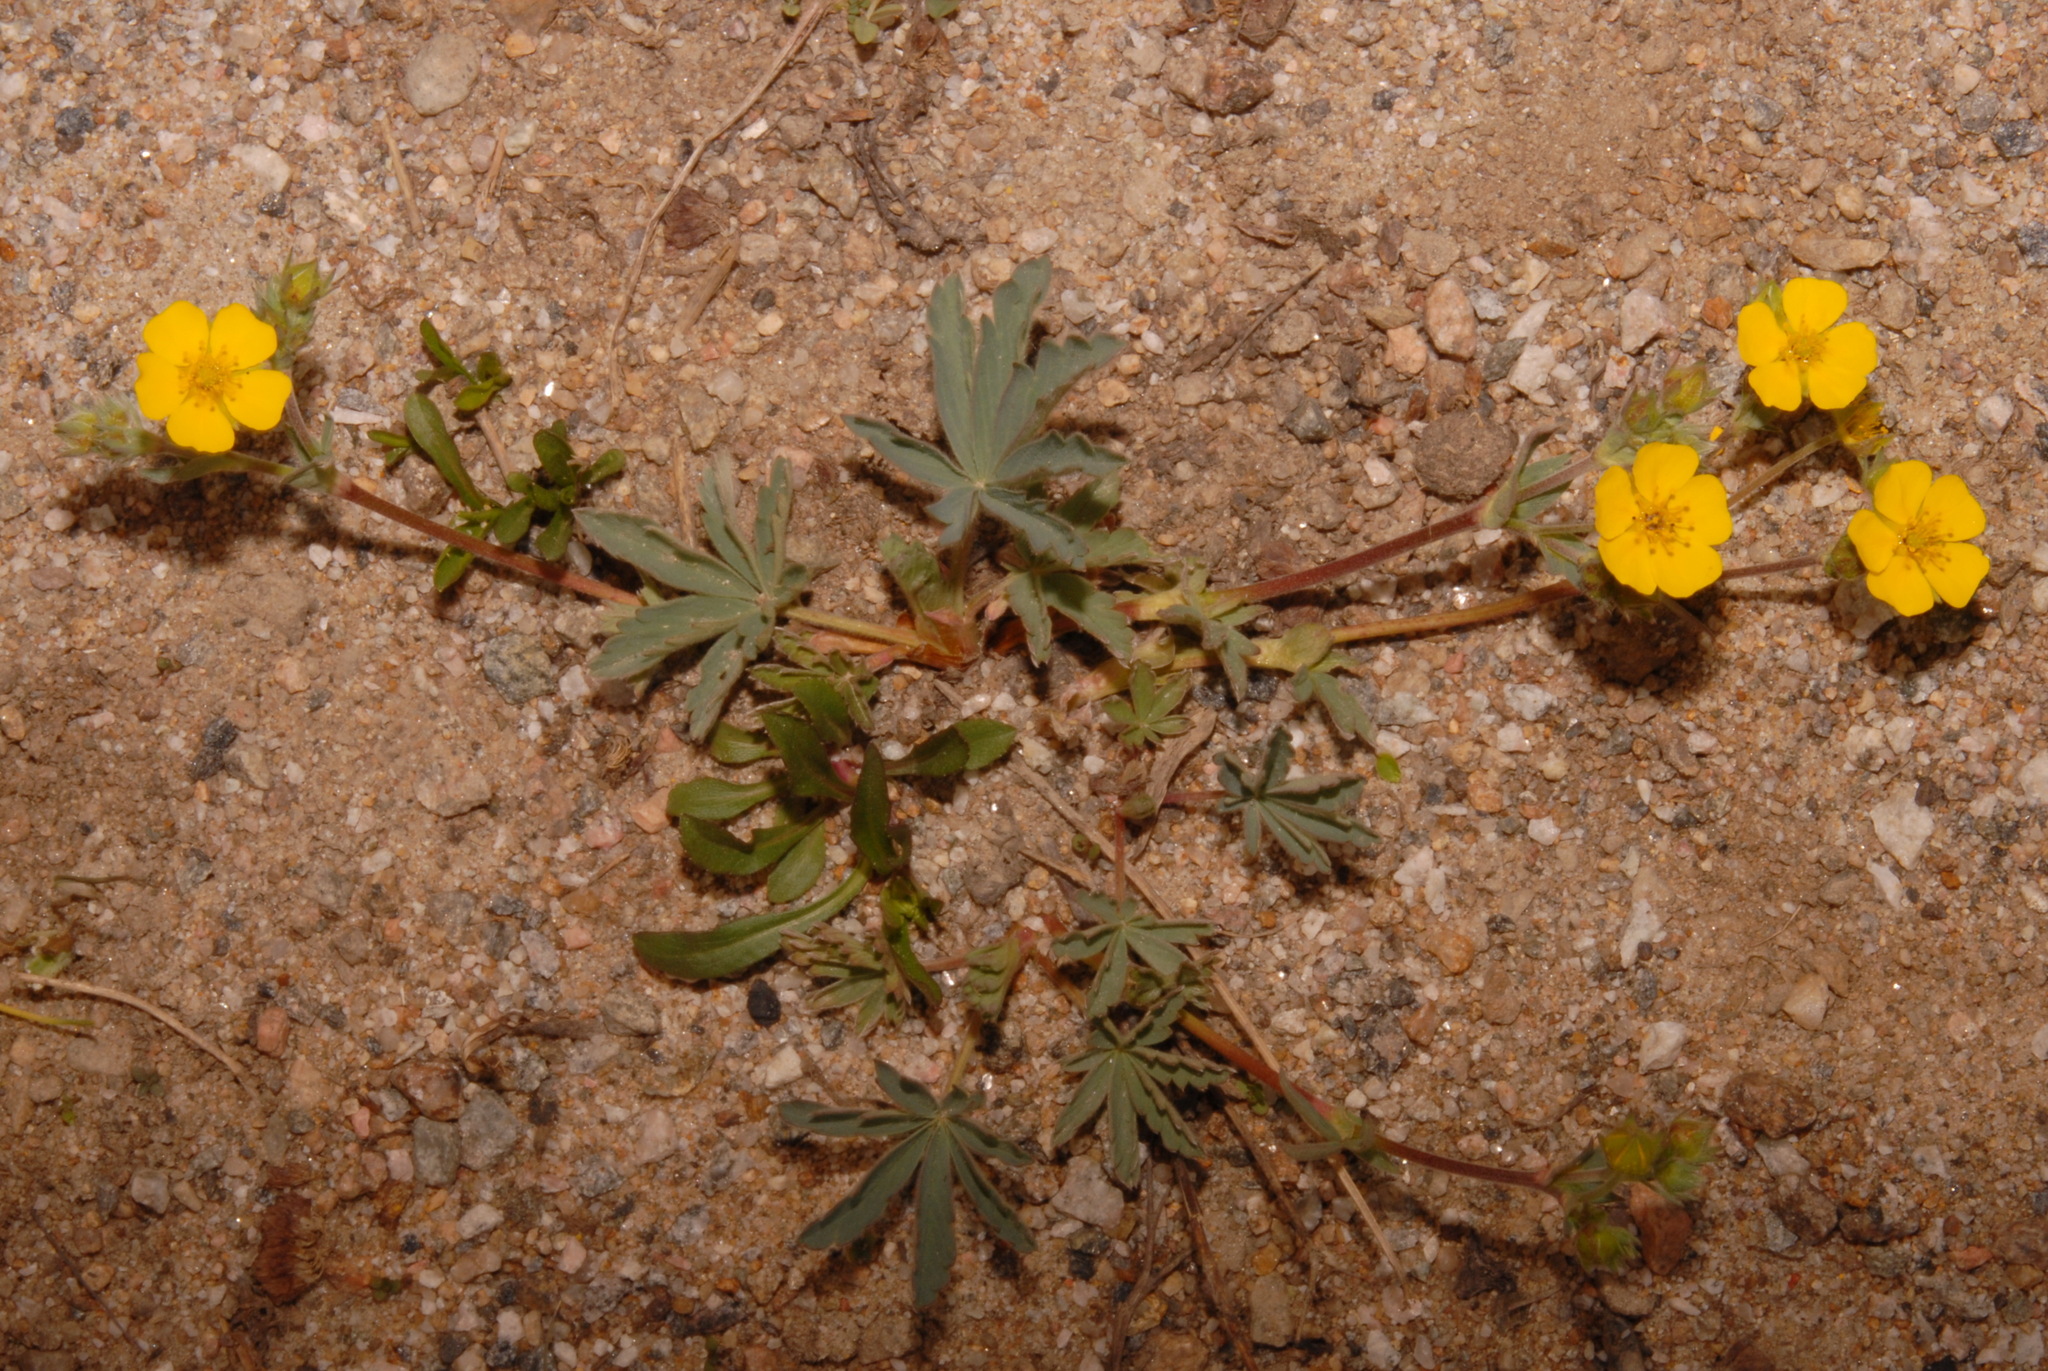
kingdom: Plantae
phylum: Tracheophyta
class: Magnoliopsida
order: Rosales
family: Rosaceae
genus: Potentilla
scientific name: Potentilla concinna
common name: Early cinquefoil
